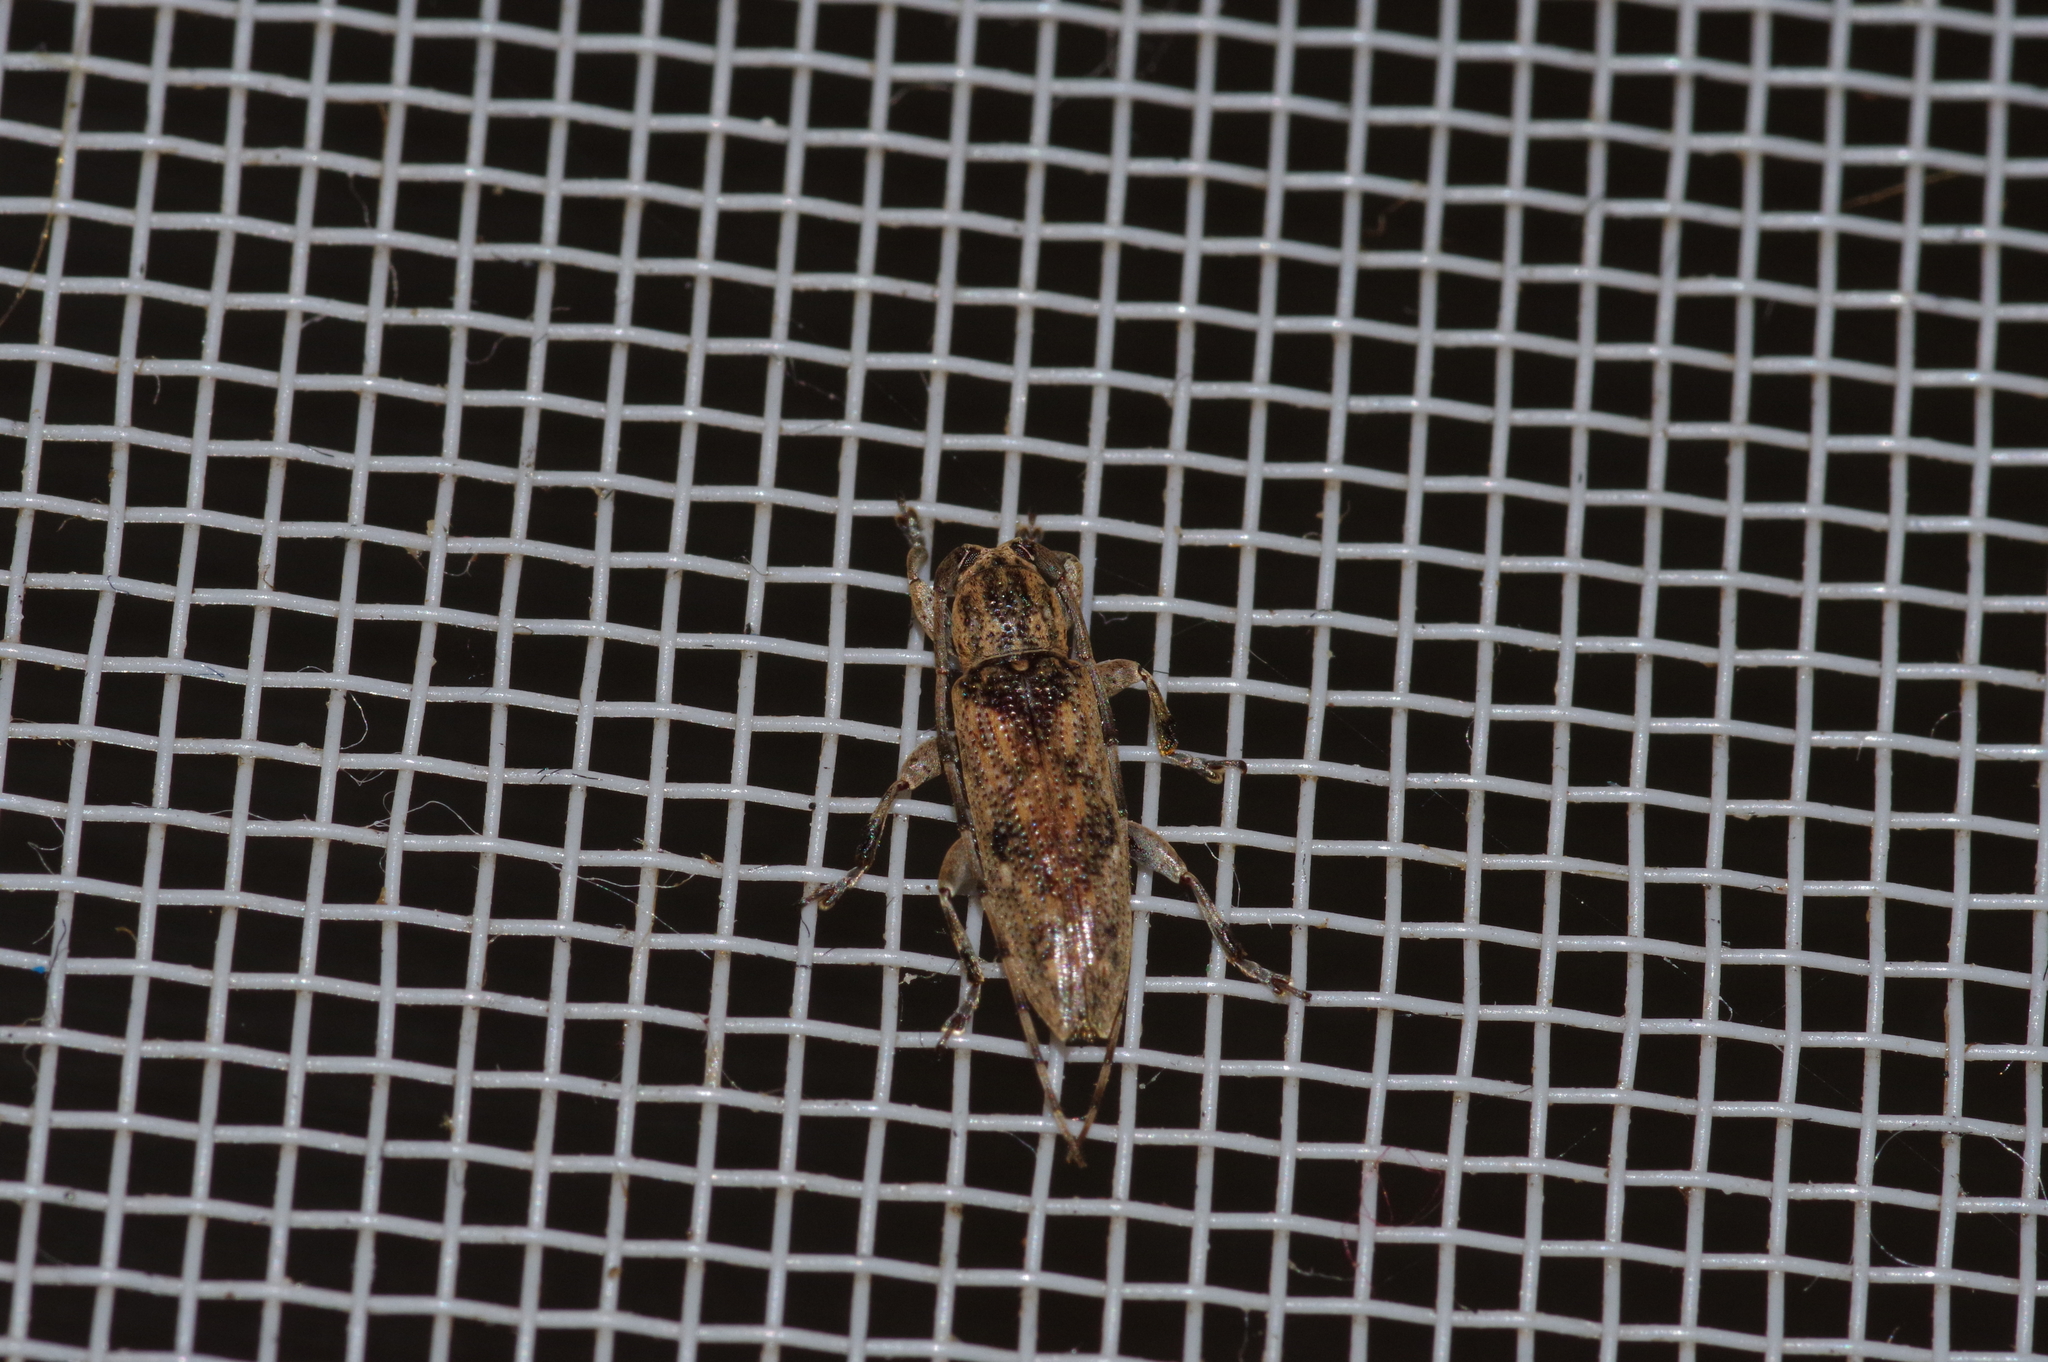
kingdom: Animalia
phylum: Arthropoda
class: Insecta
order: Coleoptera
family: Cerambycidae
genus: Mycerinopsis
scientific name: Mycerinopsis ordinata
